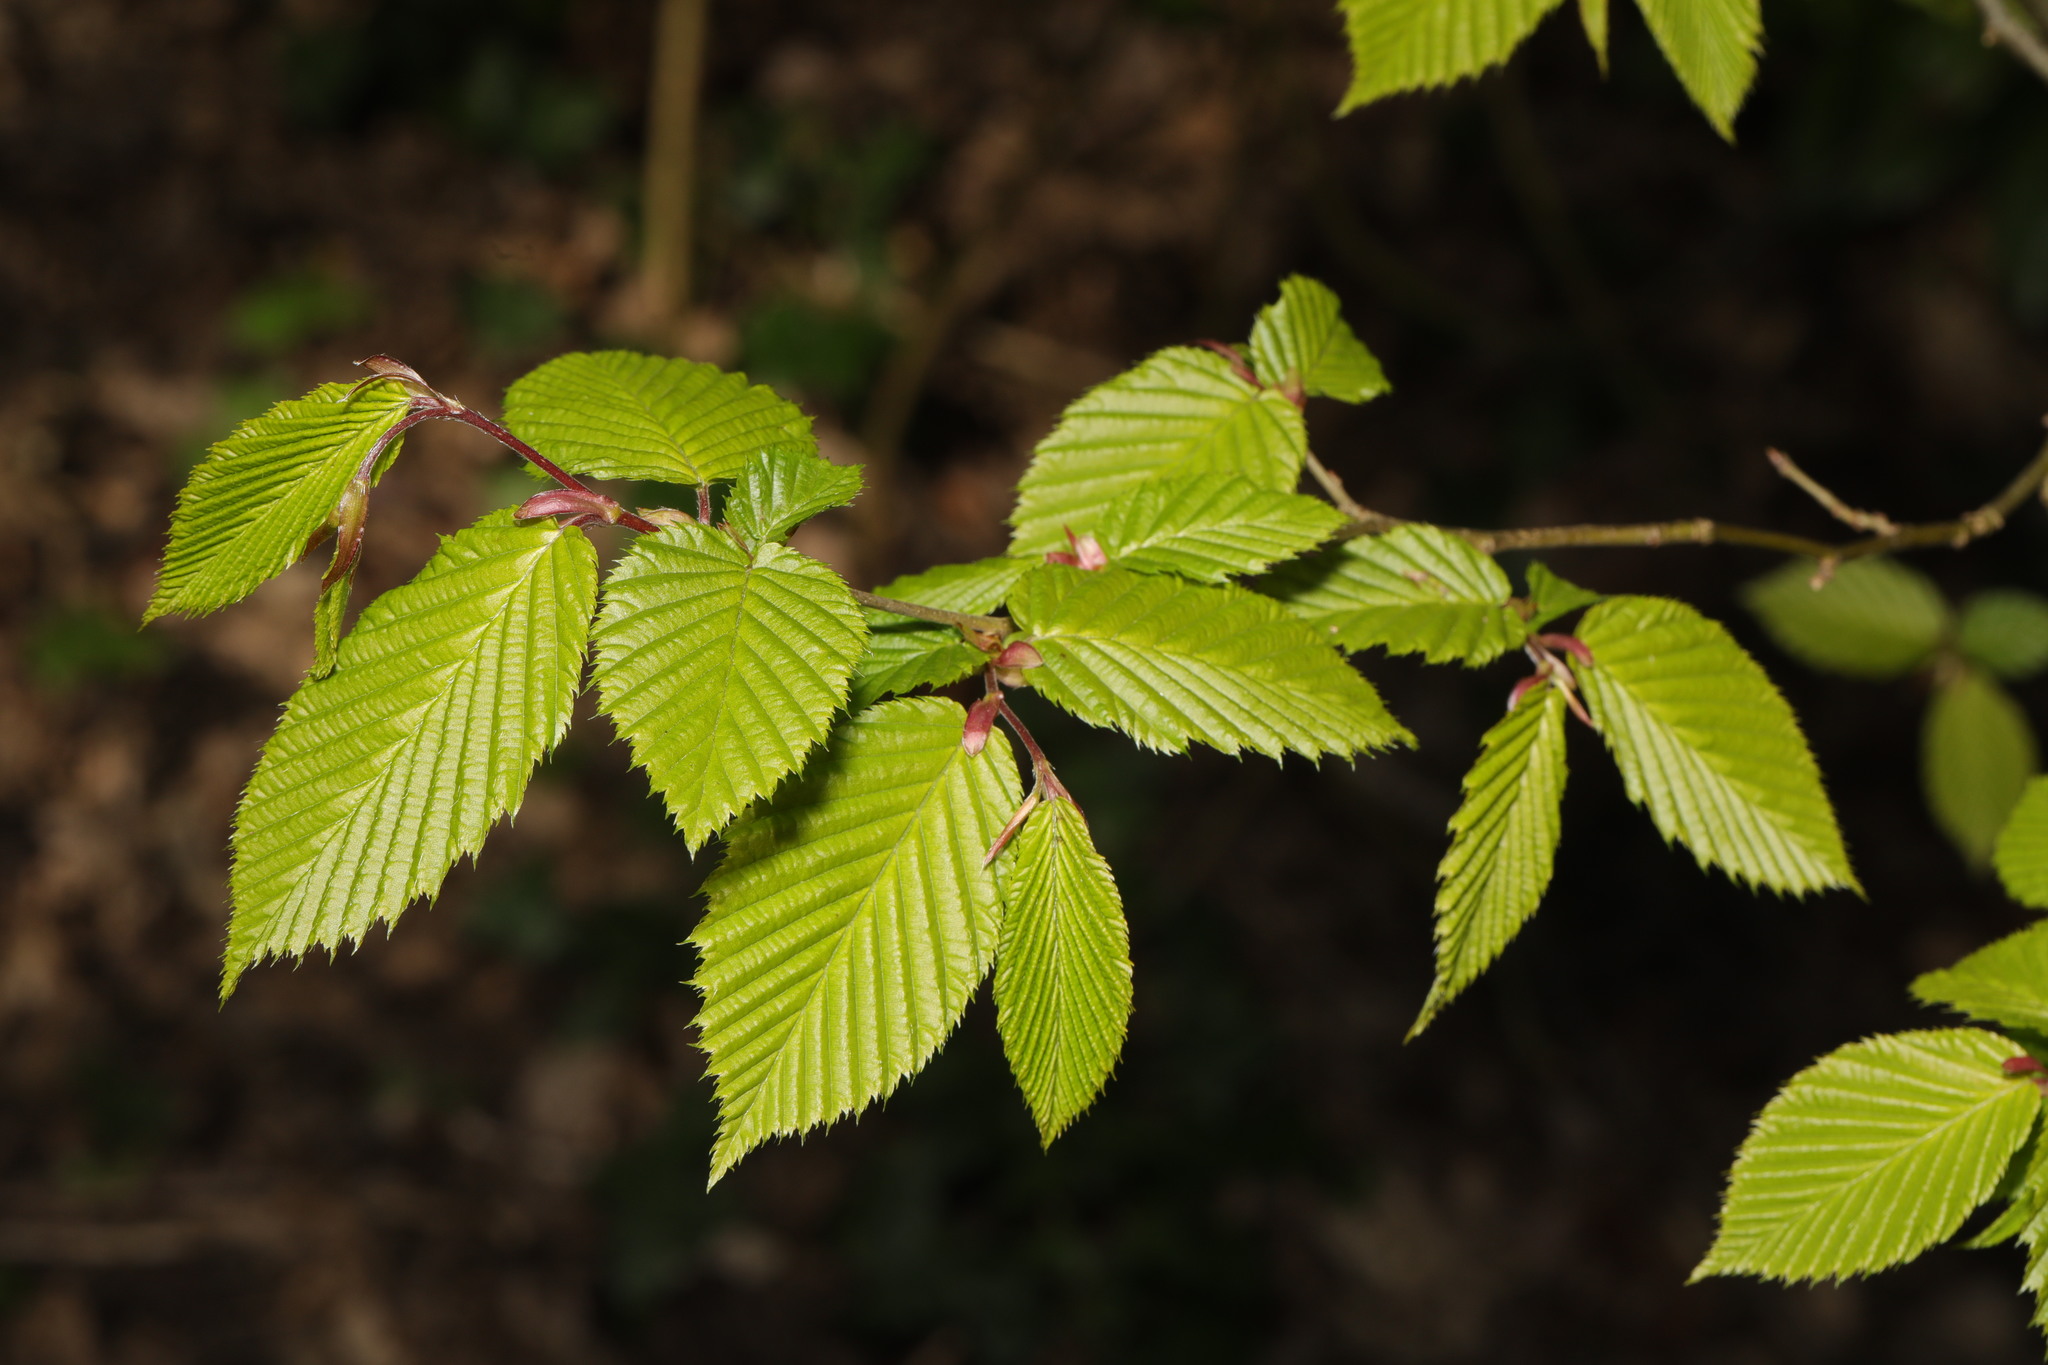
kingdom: Plantae
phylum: Tracheophyta
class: Magnoliopsida
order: Fagales
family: Betulaceae
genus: Carpinus
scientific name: Carpinus betulus
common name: Hornbeam
